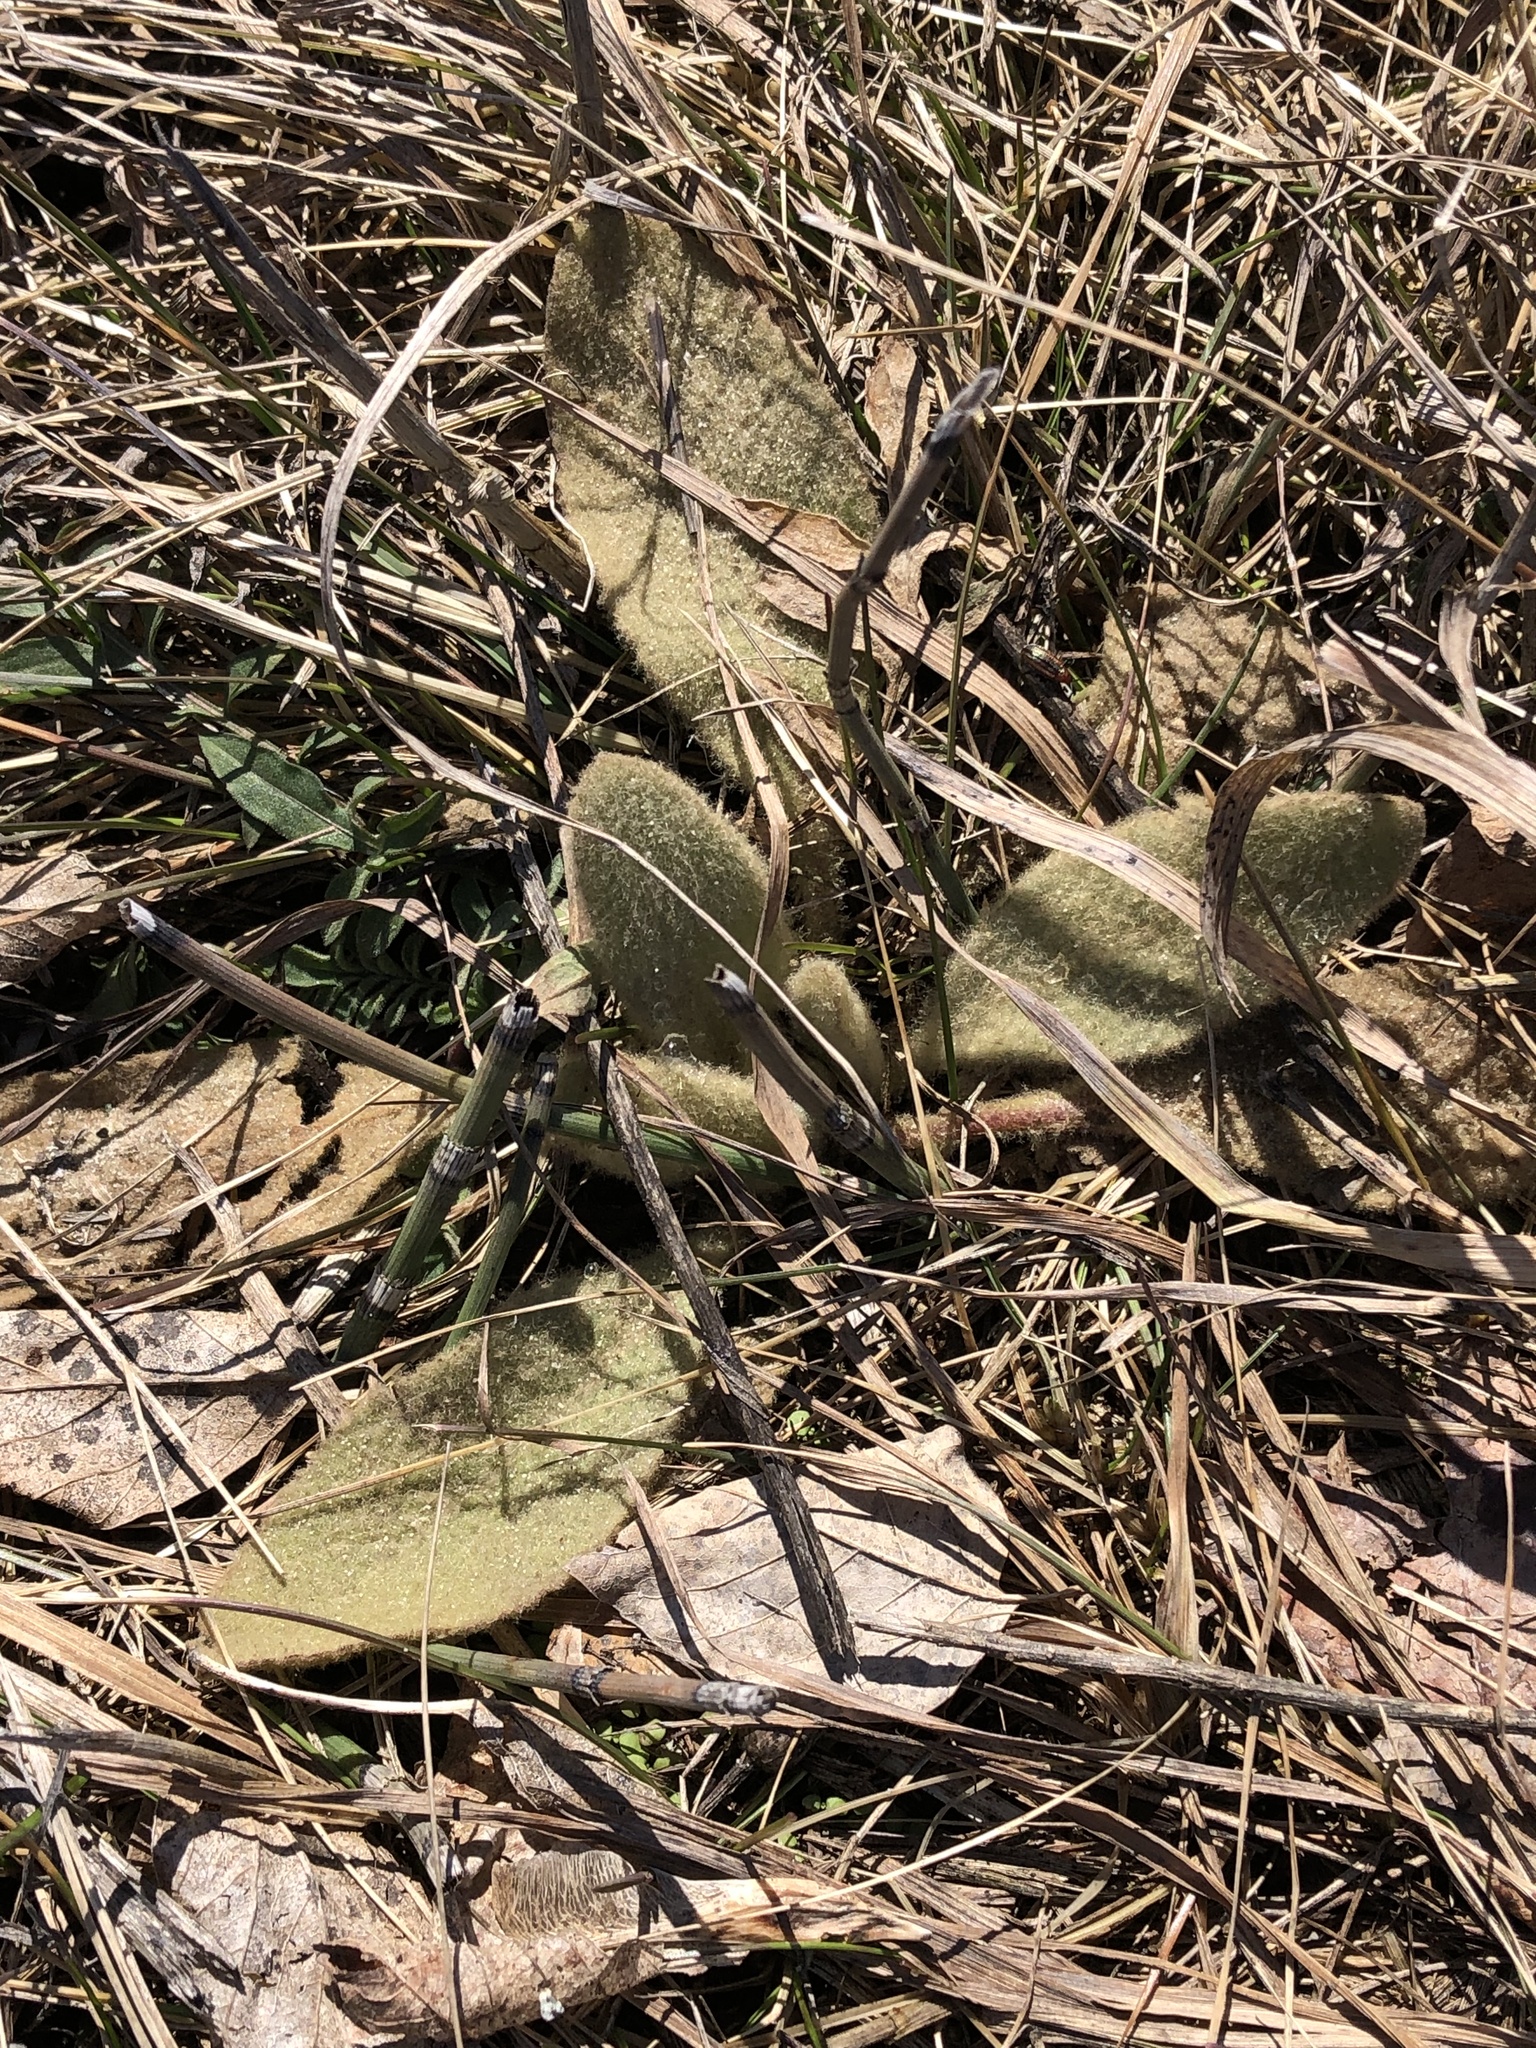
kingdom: Plantae
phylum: Tracheophyta
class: Magnoliopsida
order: Lamiales
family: Scrophulariaceae
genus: Verbascum
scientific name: Verbascum thapsus
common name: Common mullein
